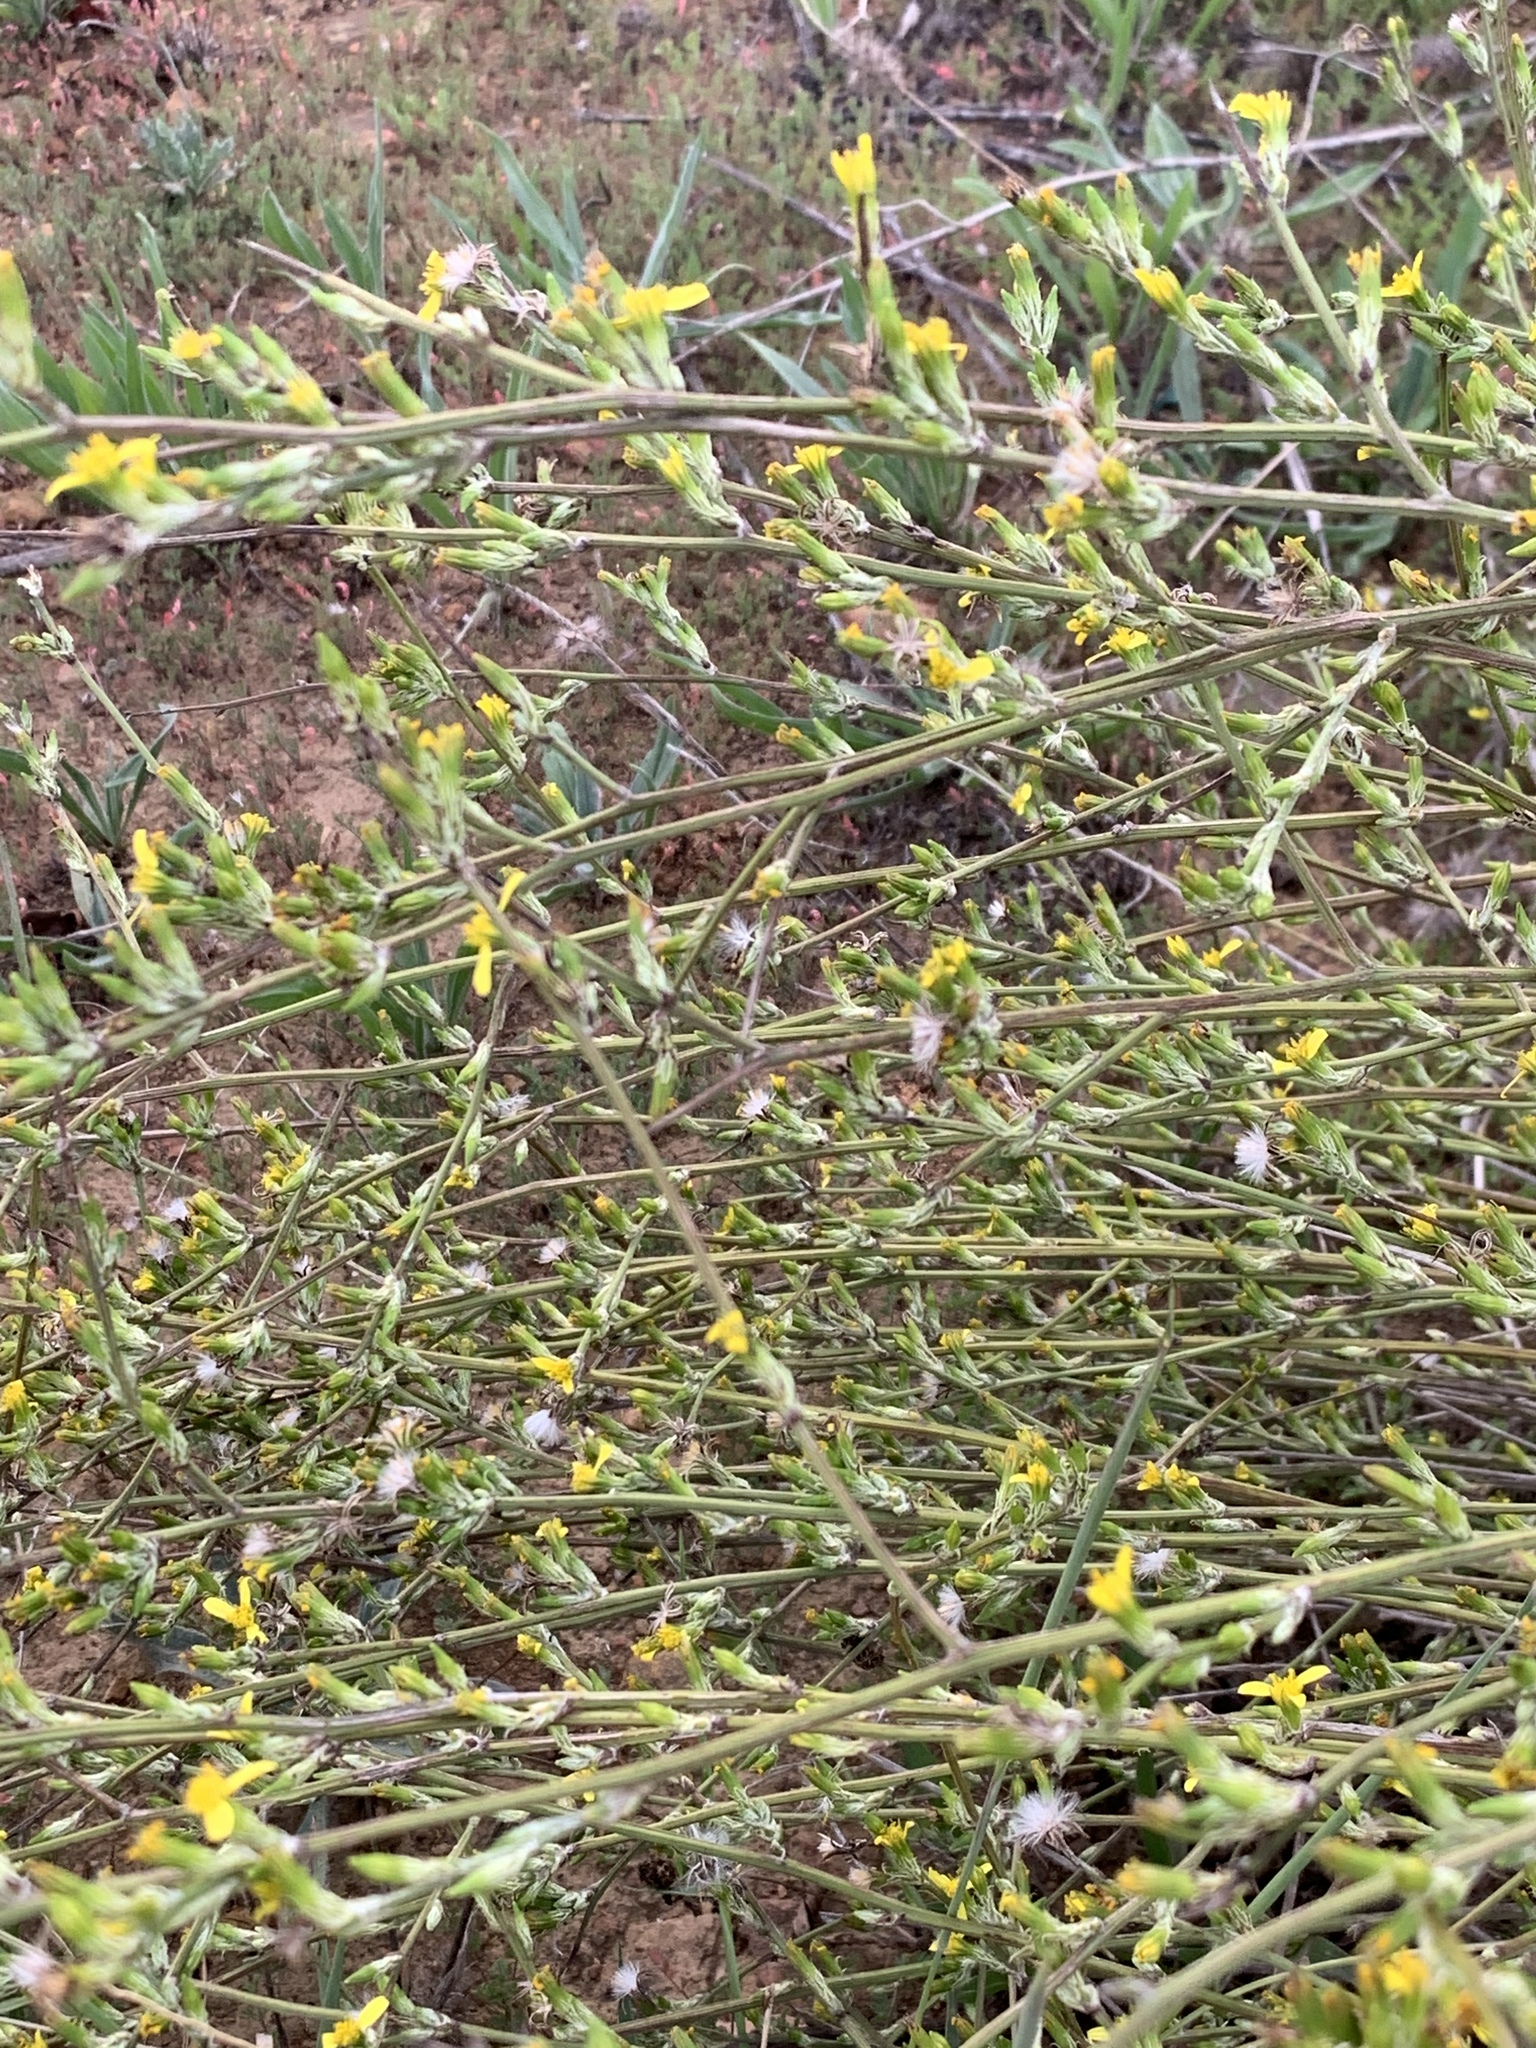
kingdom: Plantae
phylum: Tracheophyta
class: Magnoliopsida
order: Asterales
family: Asteraceae
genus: Senecio
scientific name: Senecio pubigerus
